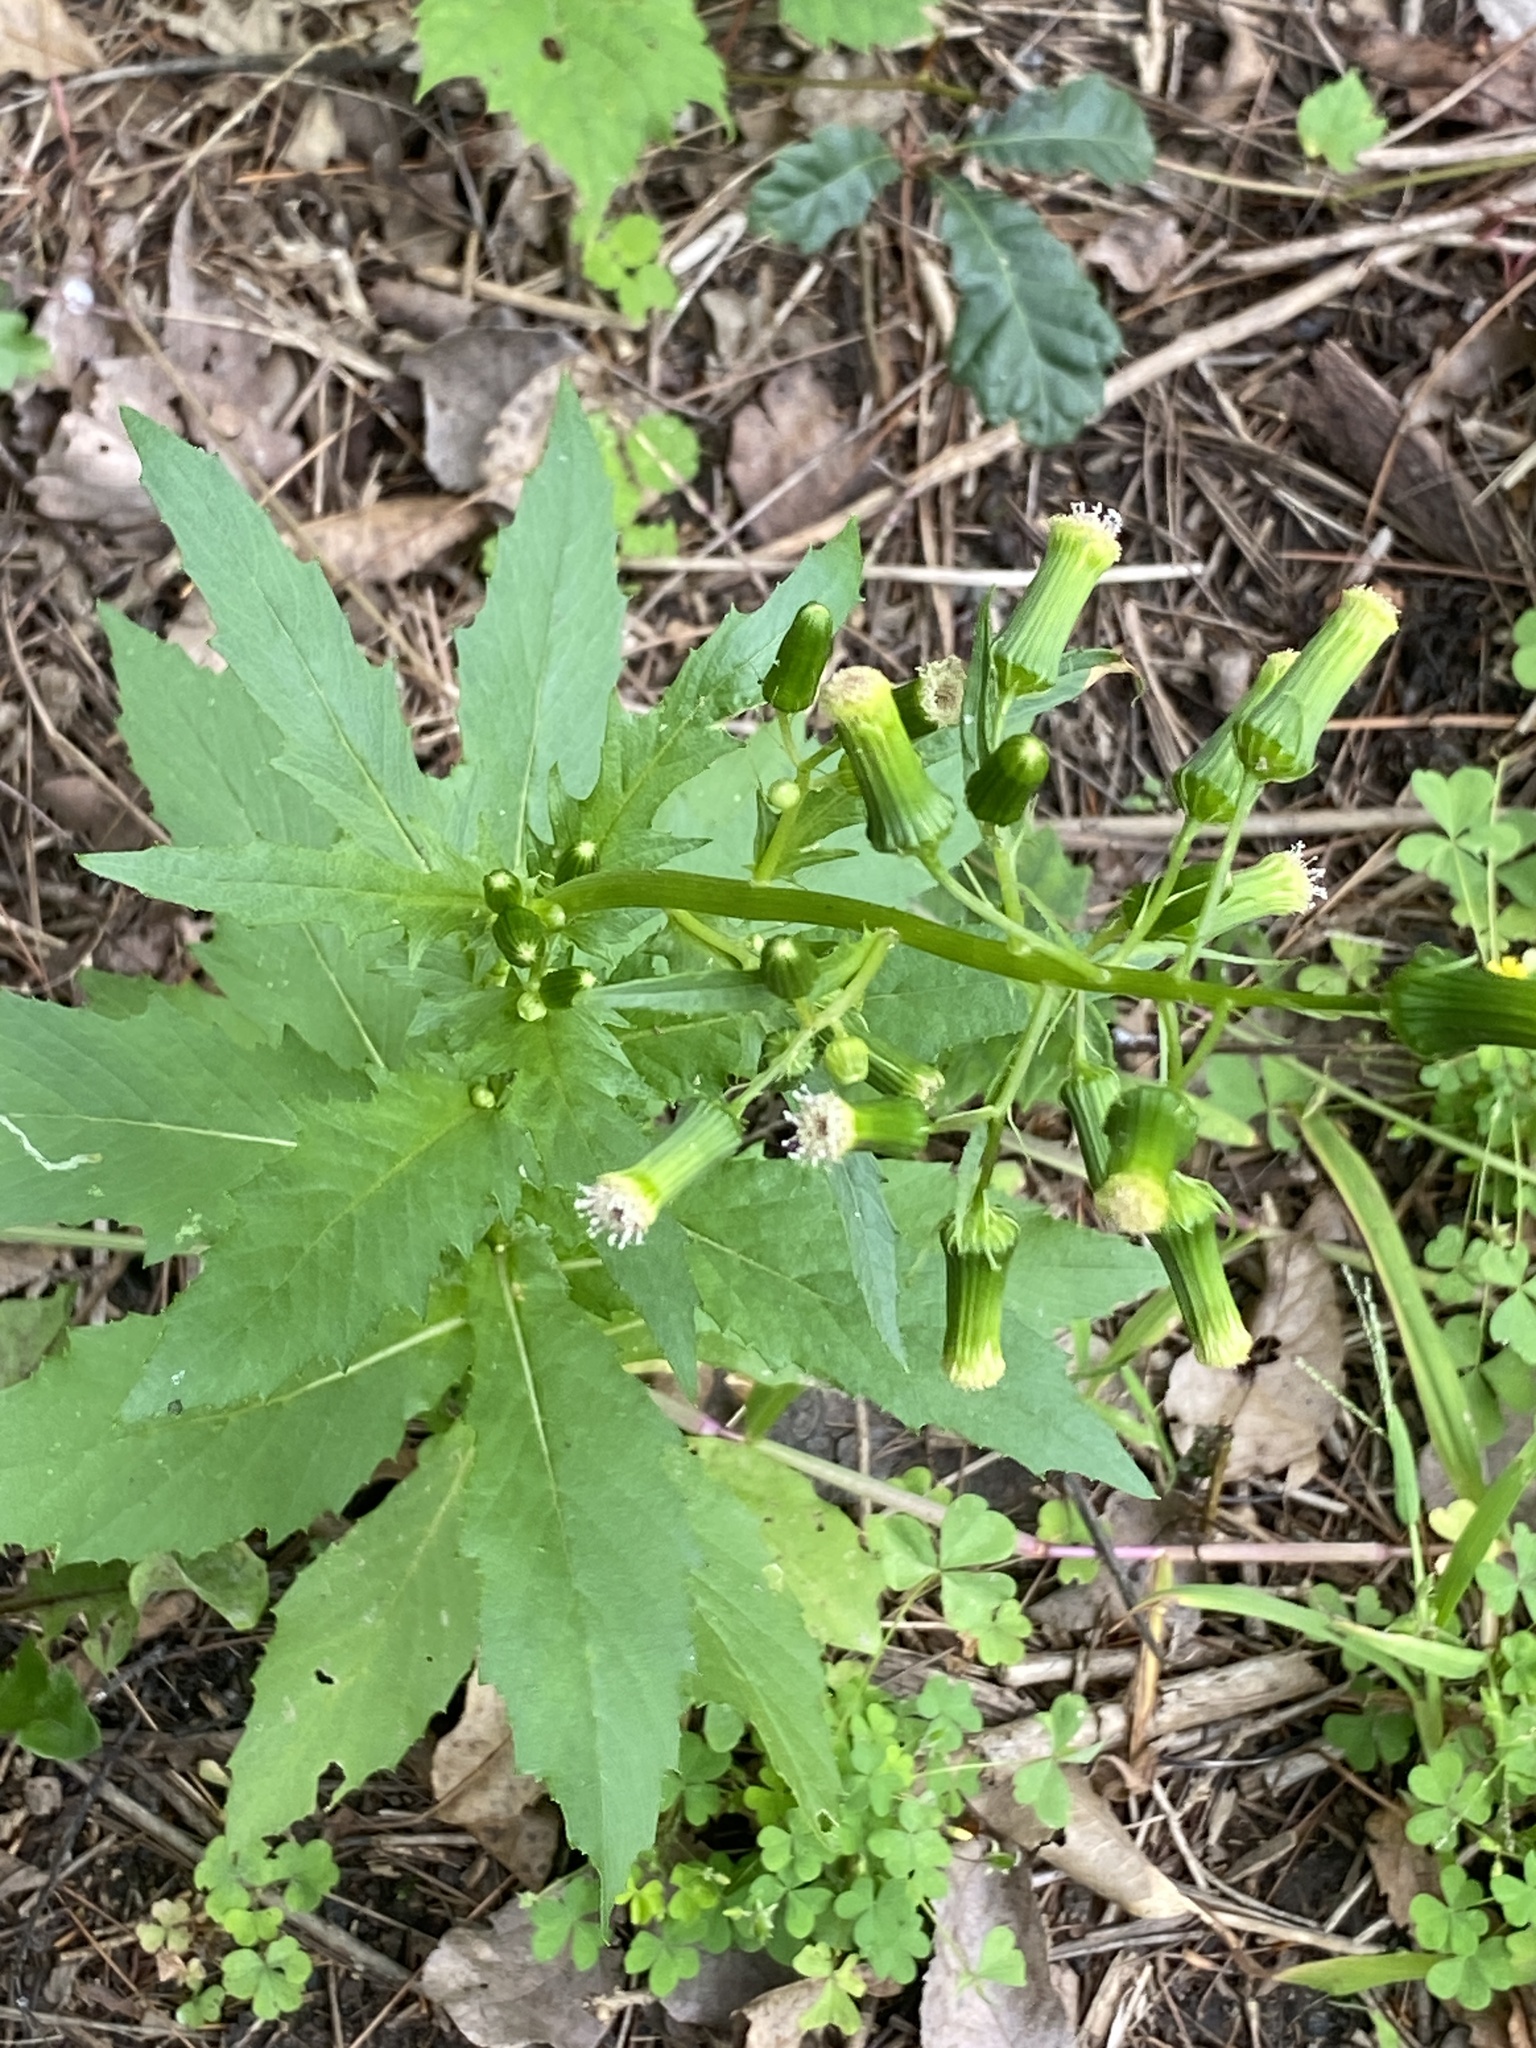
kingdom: Plantae
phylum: Tracheophyta
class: Magnoliopsida
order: Asterales
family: Asteraceae
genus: Erechtites
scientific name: Erechtites hieraciifolius
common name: American burnweed
